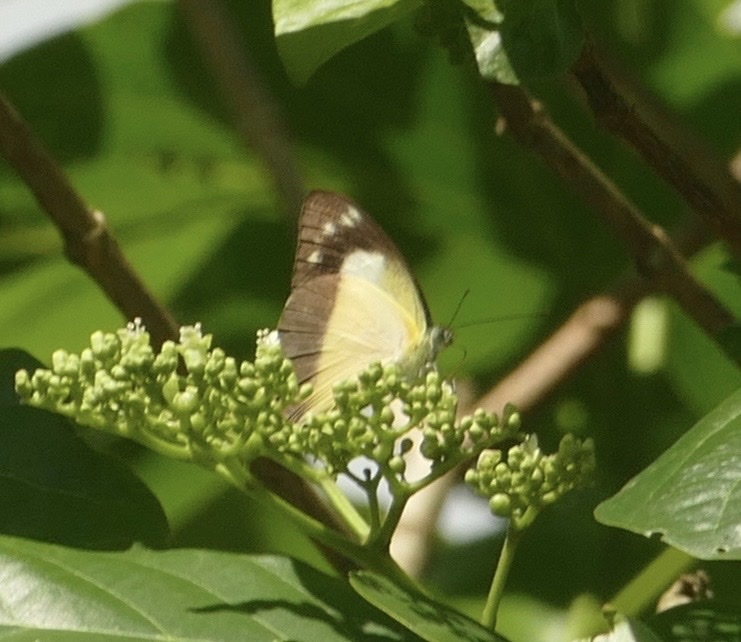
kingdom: Animalia
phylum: Arthropoda
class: Insecta
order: Lepidoptera
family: Pieridae
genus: Appias
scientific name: Appias celestina
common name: Common migrant
